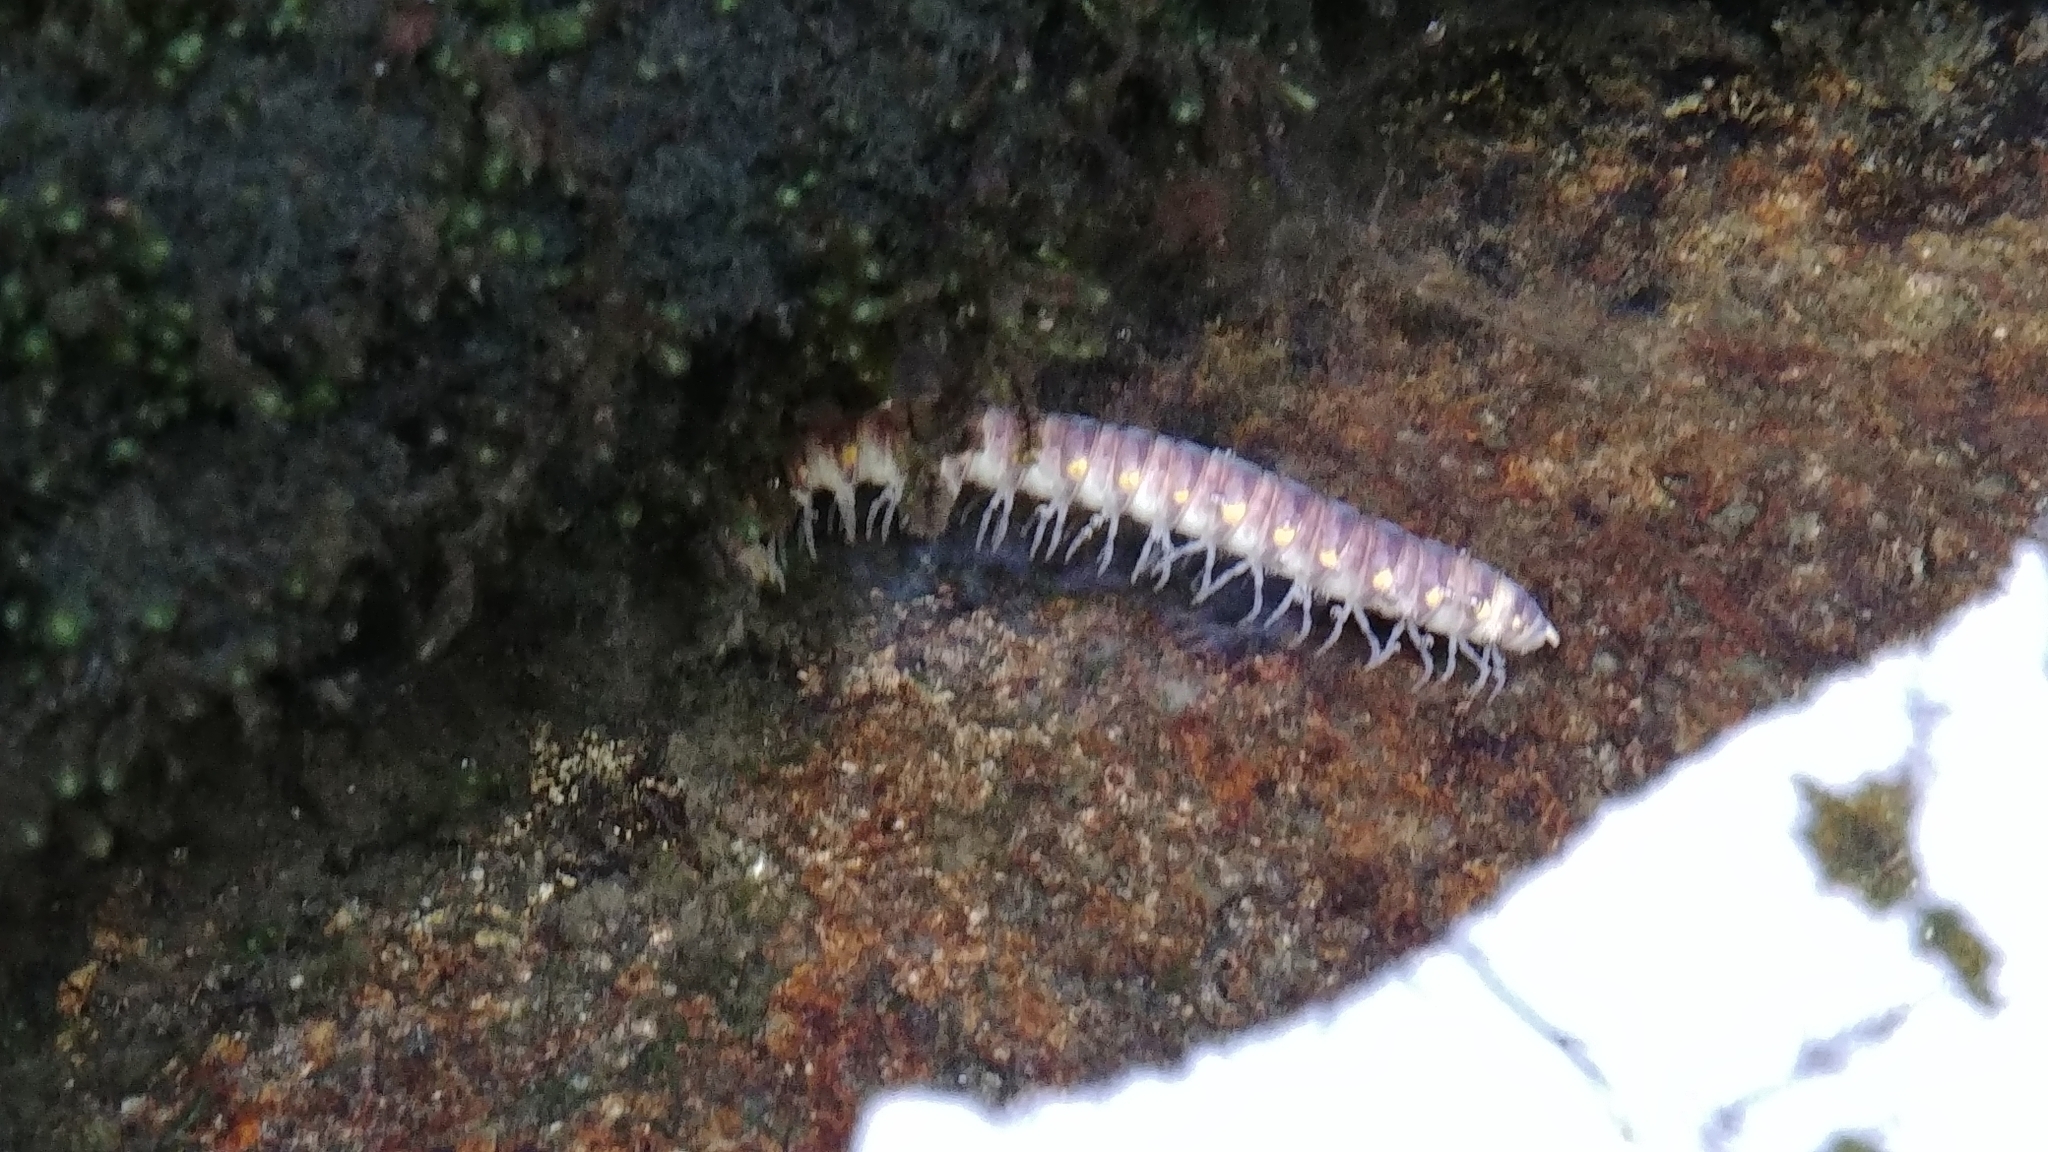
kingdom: Animalia
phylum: Arthropoda
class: Diplopoda
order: Polydesmida
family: Xystodesmidae
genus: Harpaphe
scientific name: Harpaphe haydeniana
